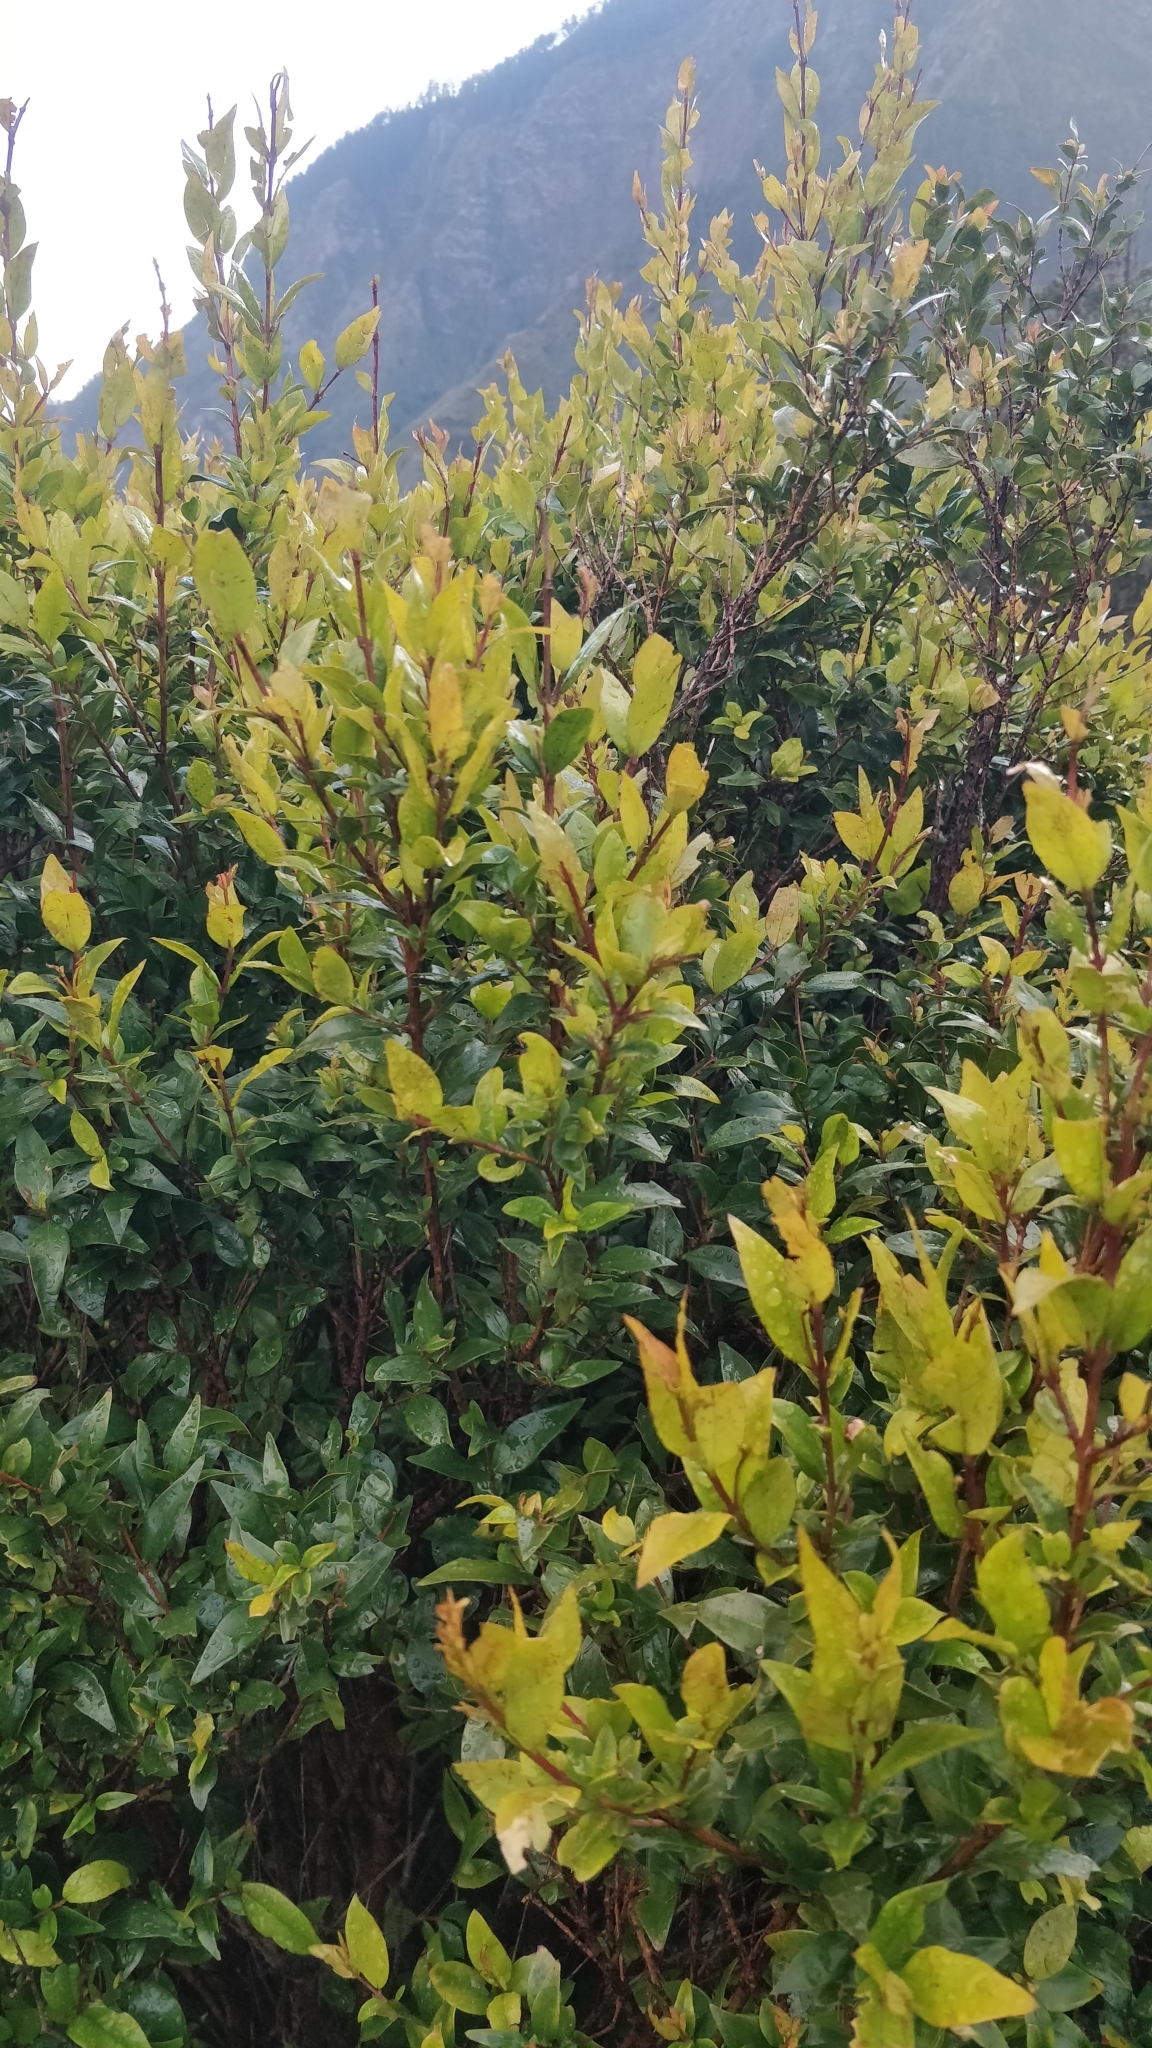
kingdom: Plantae
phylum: Tracheophyta
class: Magnoliopsida
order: Myrtales
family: Myrtaceae
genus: Myrtus
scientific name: Myrtus communis
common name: Myrtle
